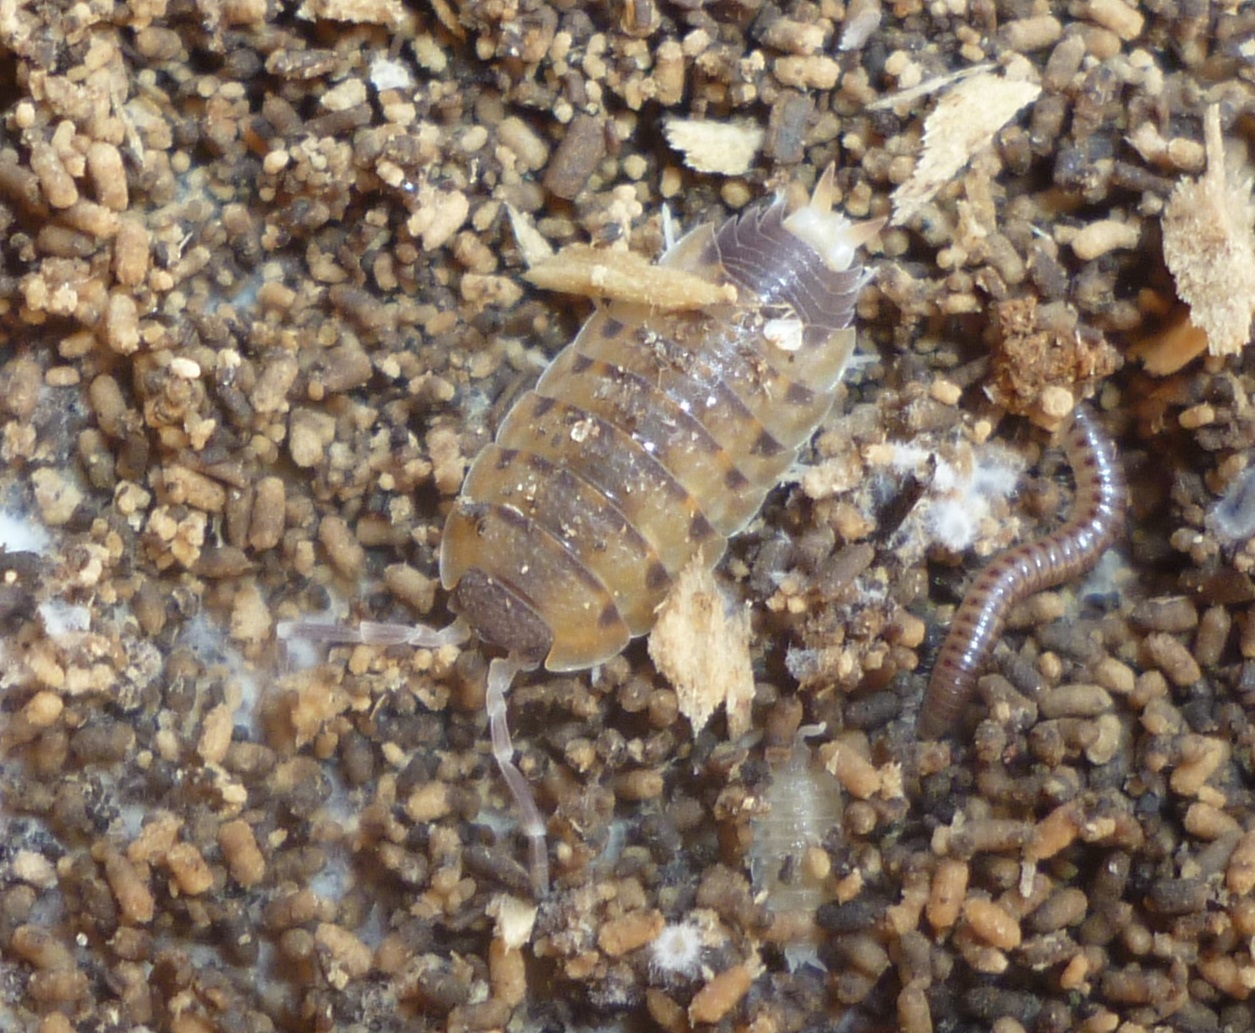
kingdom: Animalia
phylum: Arthropoda
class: Malacostraca
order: Isopoda
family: Porcellionidae
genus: Proporcellio
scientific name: Proporcellio vulcanius
